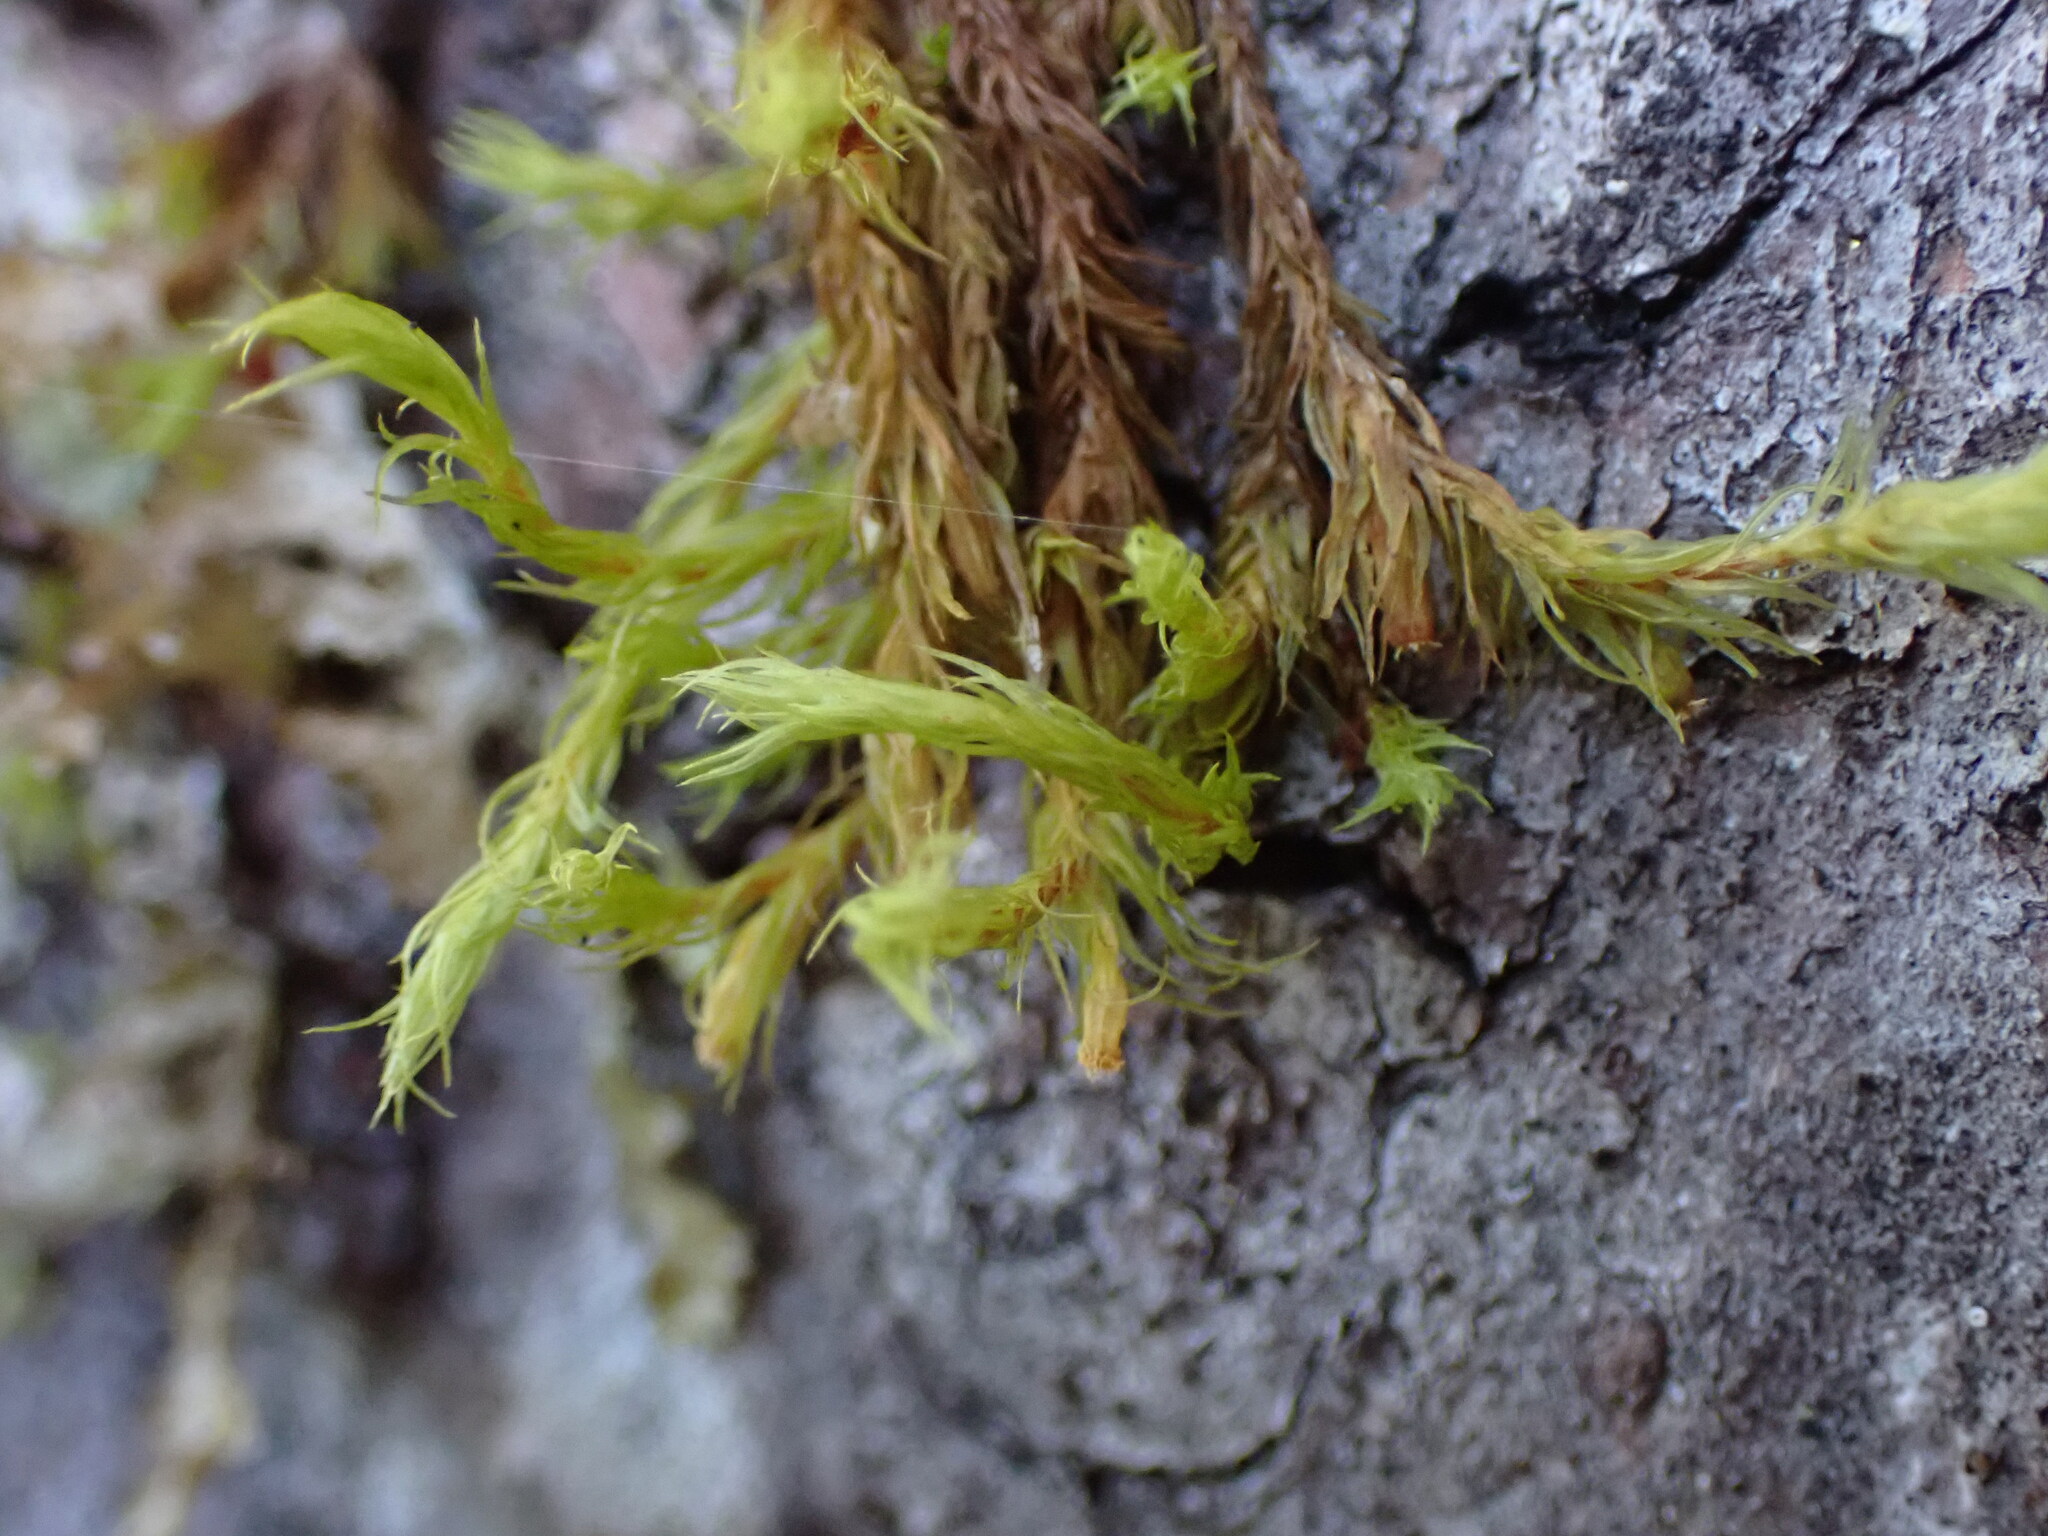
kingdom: Plantae
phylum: Bryophyta
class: Bryopsida
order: Orthotrichales
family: Orthotrichaceae
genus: Pulvigera
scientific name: Pulvigera papillosa
